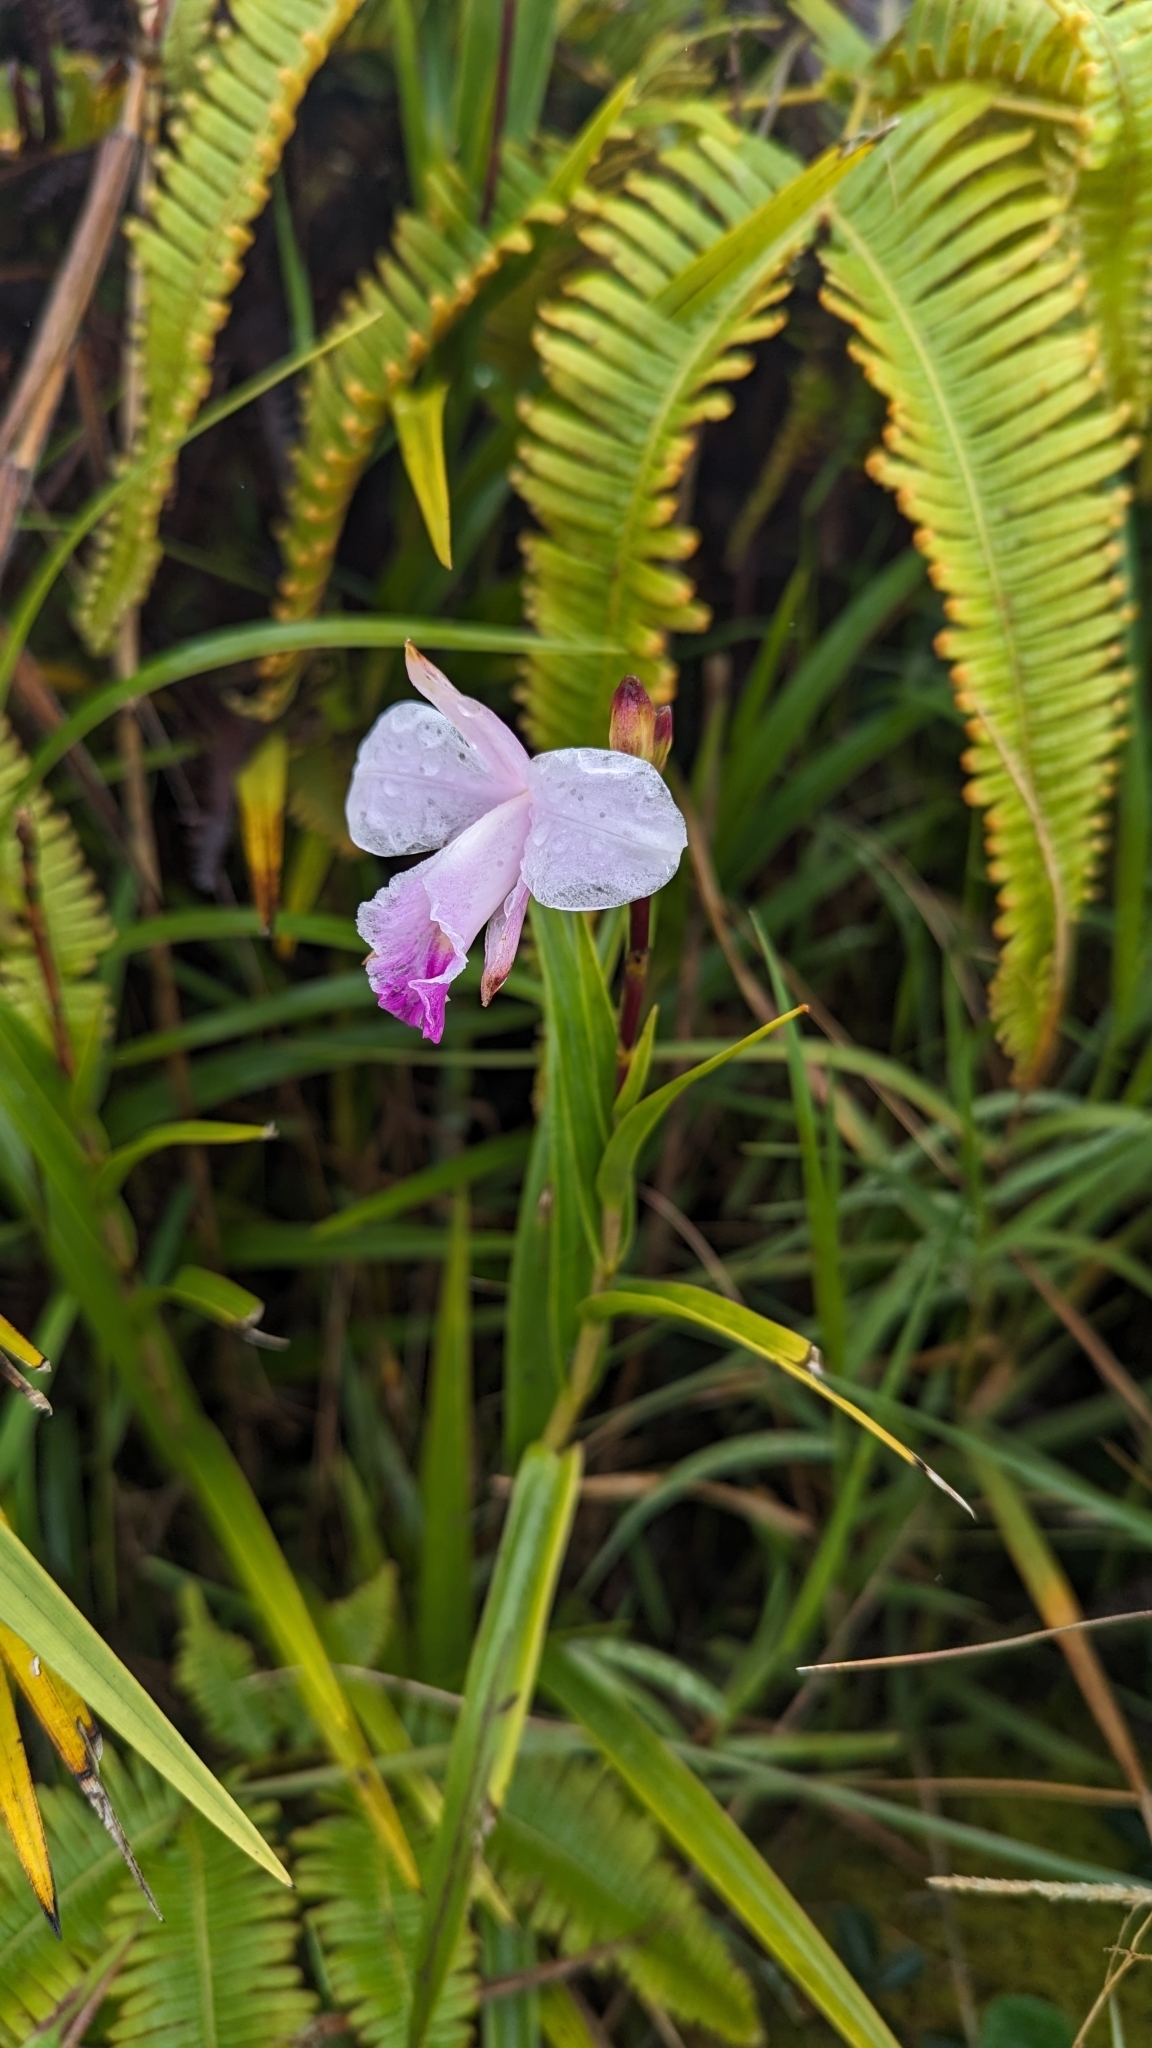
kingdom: Plantae
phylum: Tracheophyta
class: Liliopsida
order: Asparagales
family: Orchidaceae
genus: Arundina
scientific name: Arundina graminifolia
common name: Bamboo orchid
